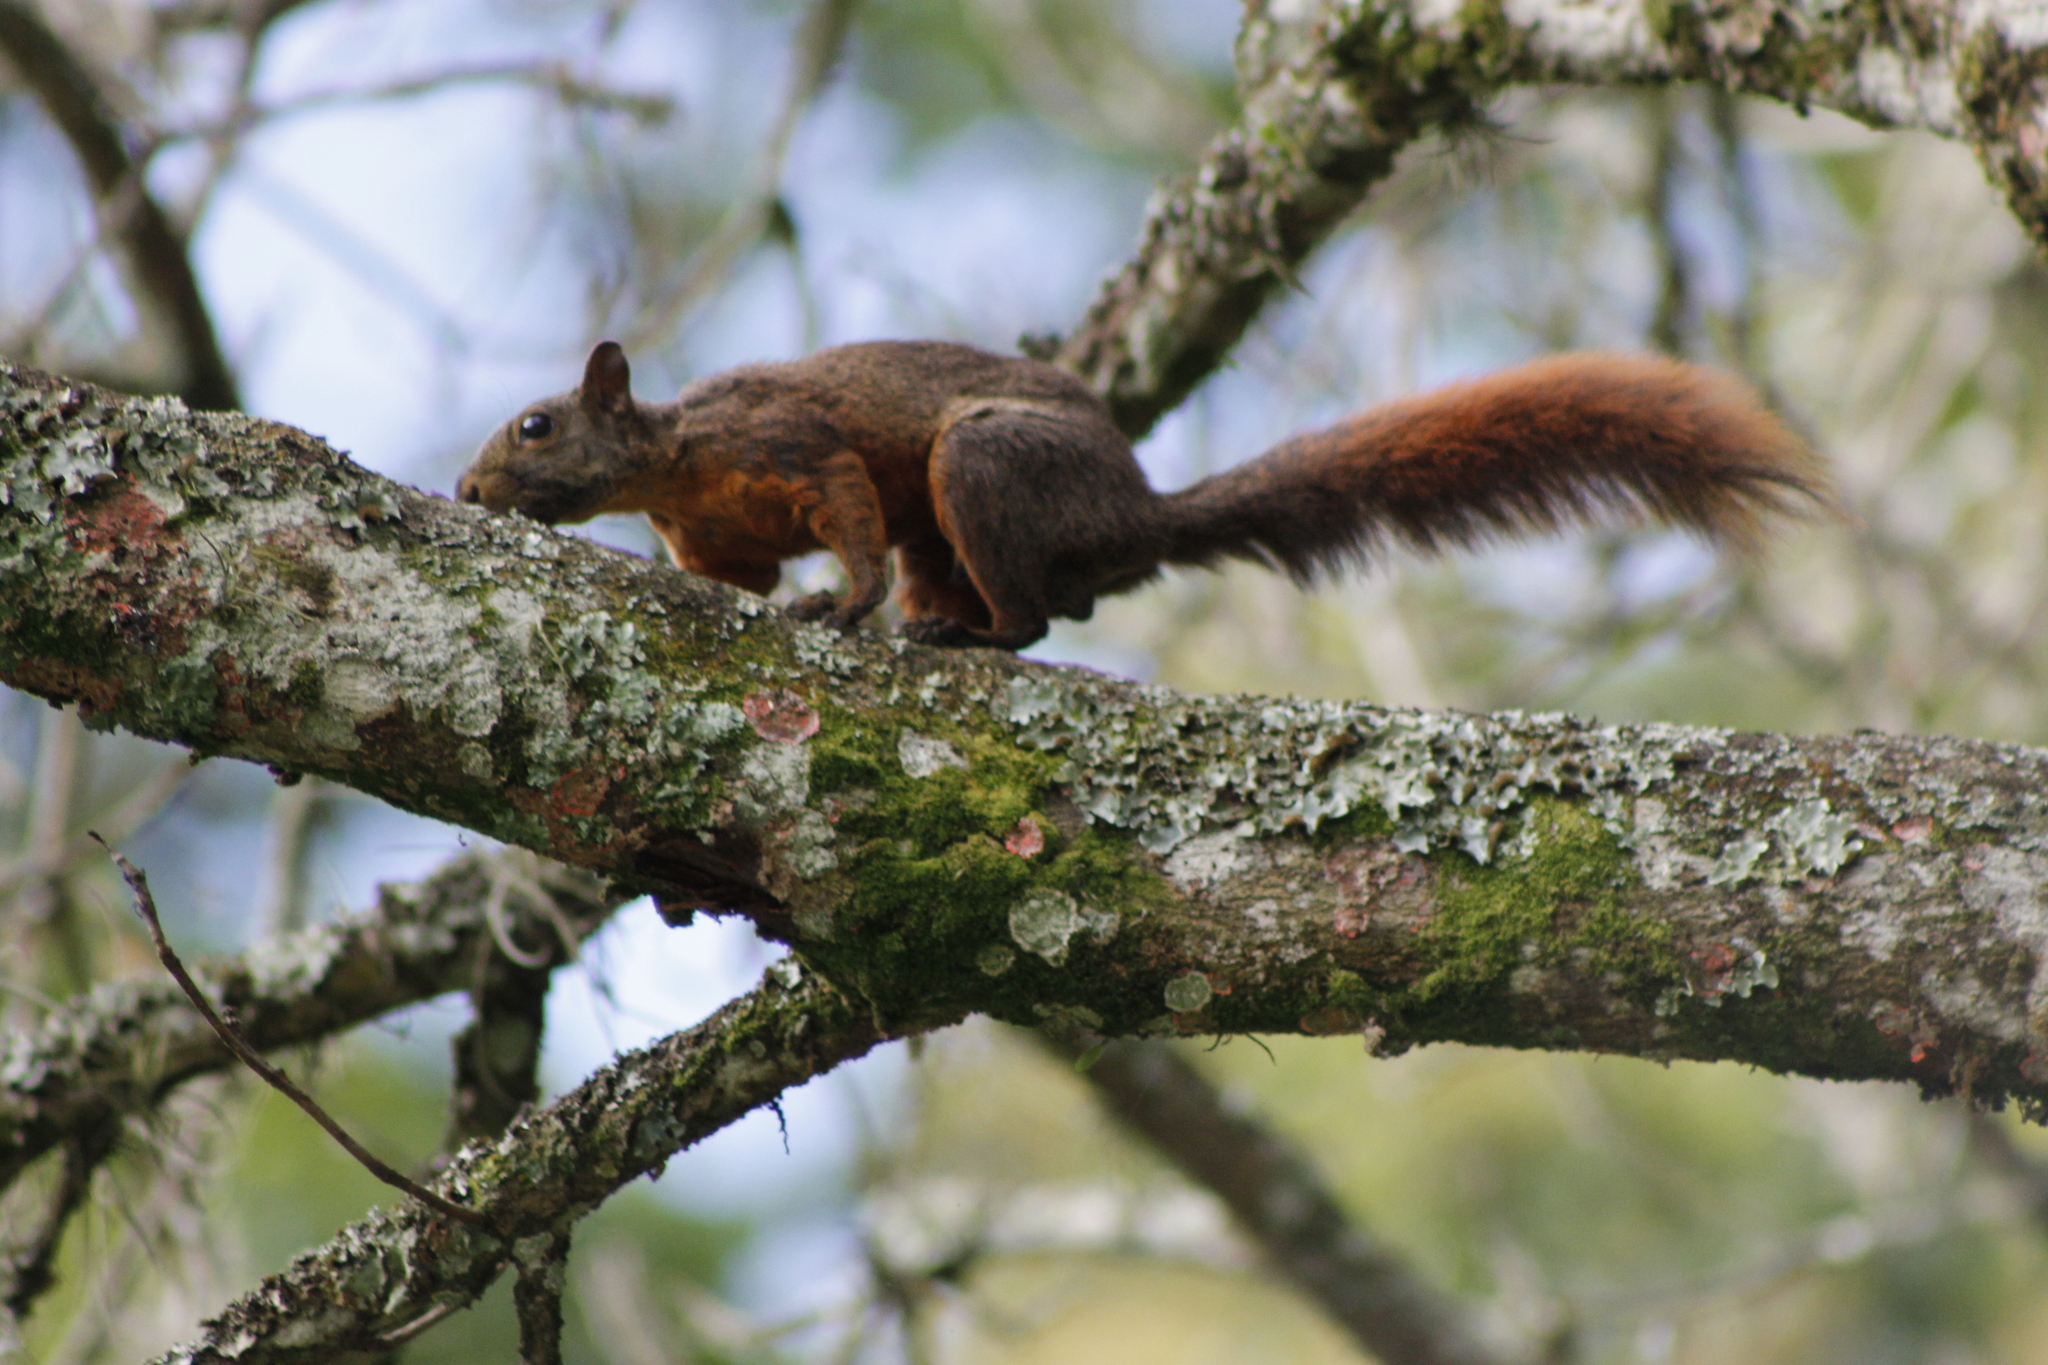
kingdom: Animalia
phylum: Chordata
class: Mammalia
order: Rodentia
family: Sciuridae
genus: Sciurus
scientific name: Sciurus granatensis
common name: Red-tailed squirrel
